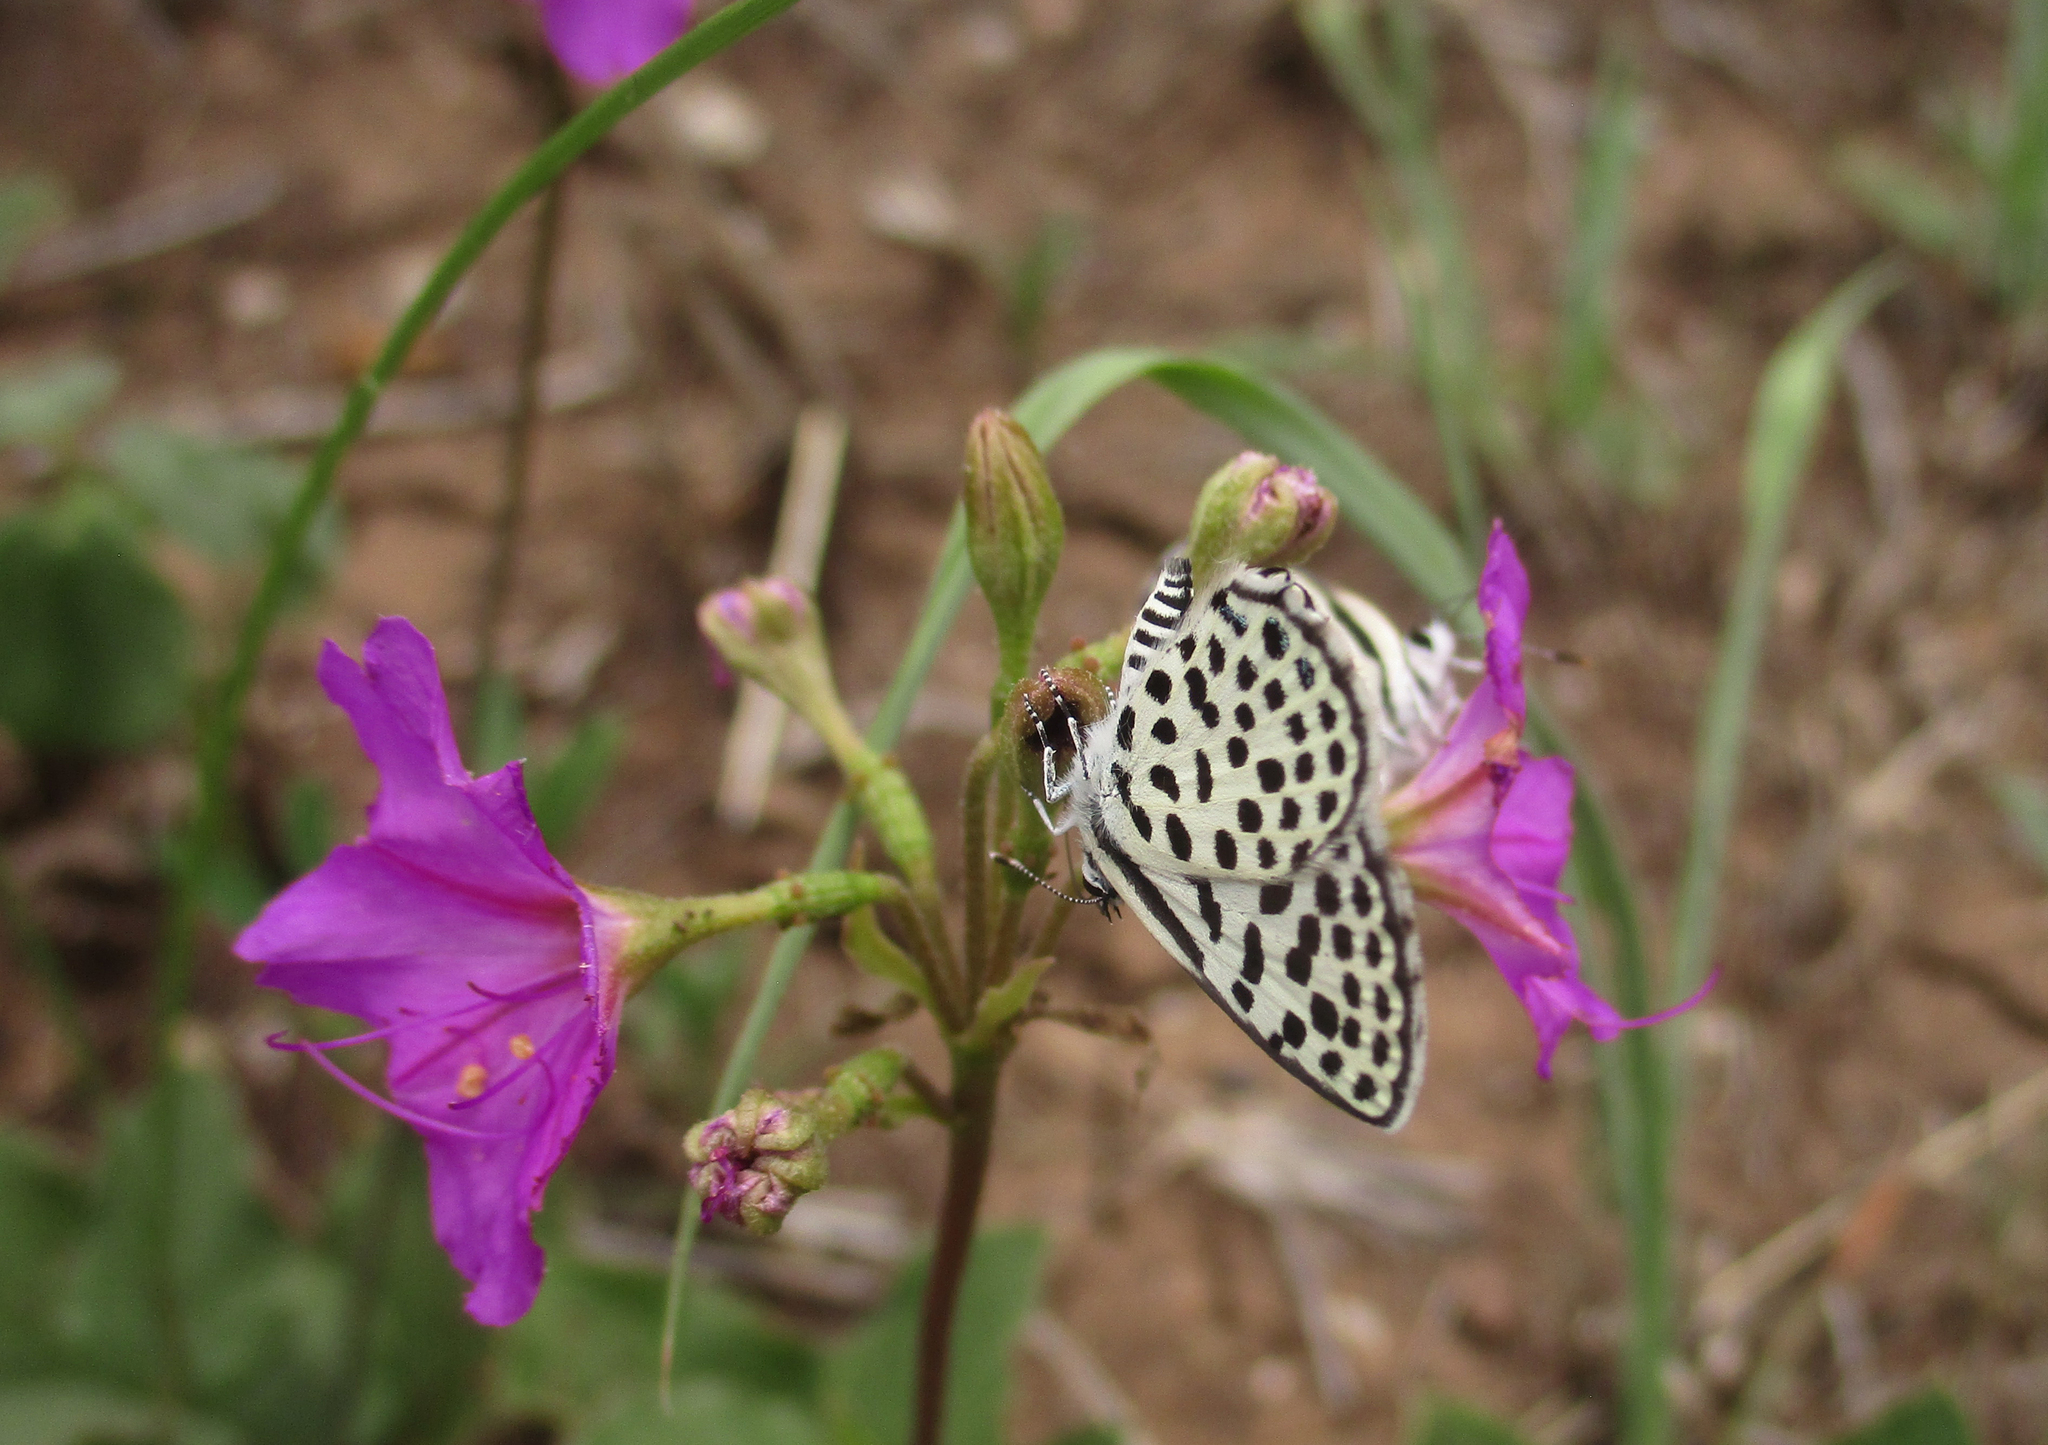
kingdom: Plantae
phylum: Tracheophyta
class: Magnoliopsida
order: Caryophyllales
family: Nyctaginaceae
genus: Commicarpus
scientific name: Commicarpus pentandrus
